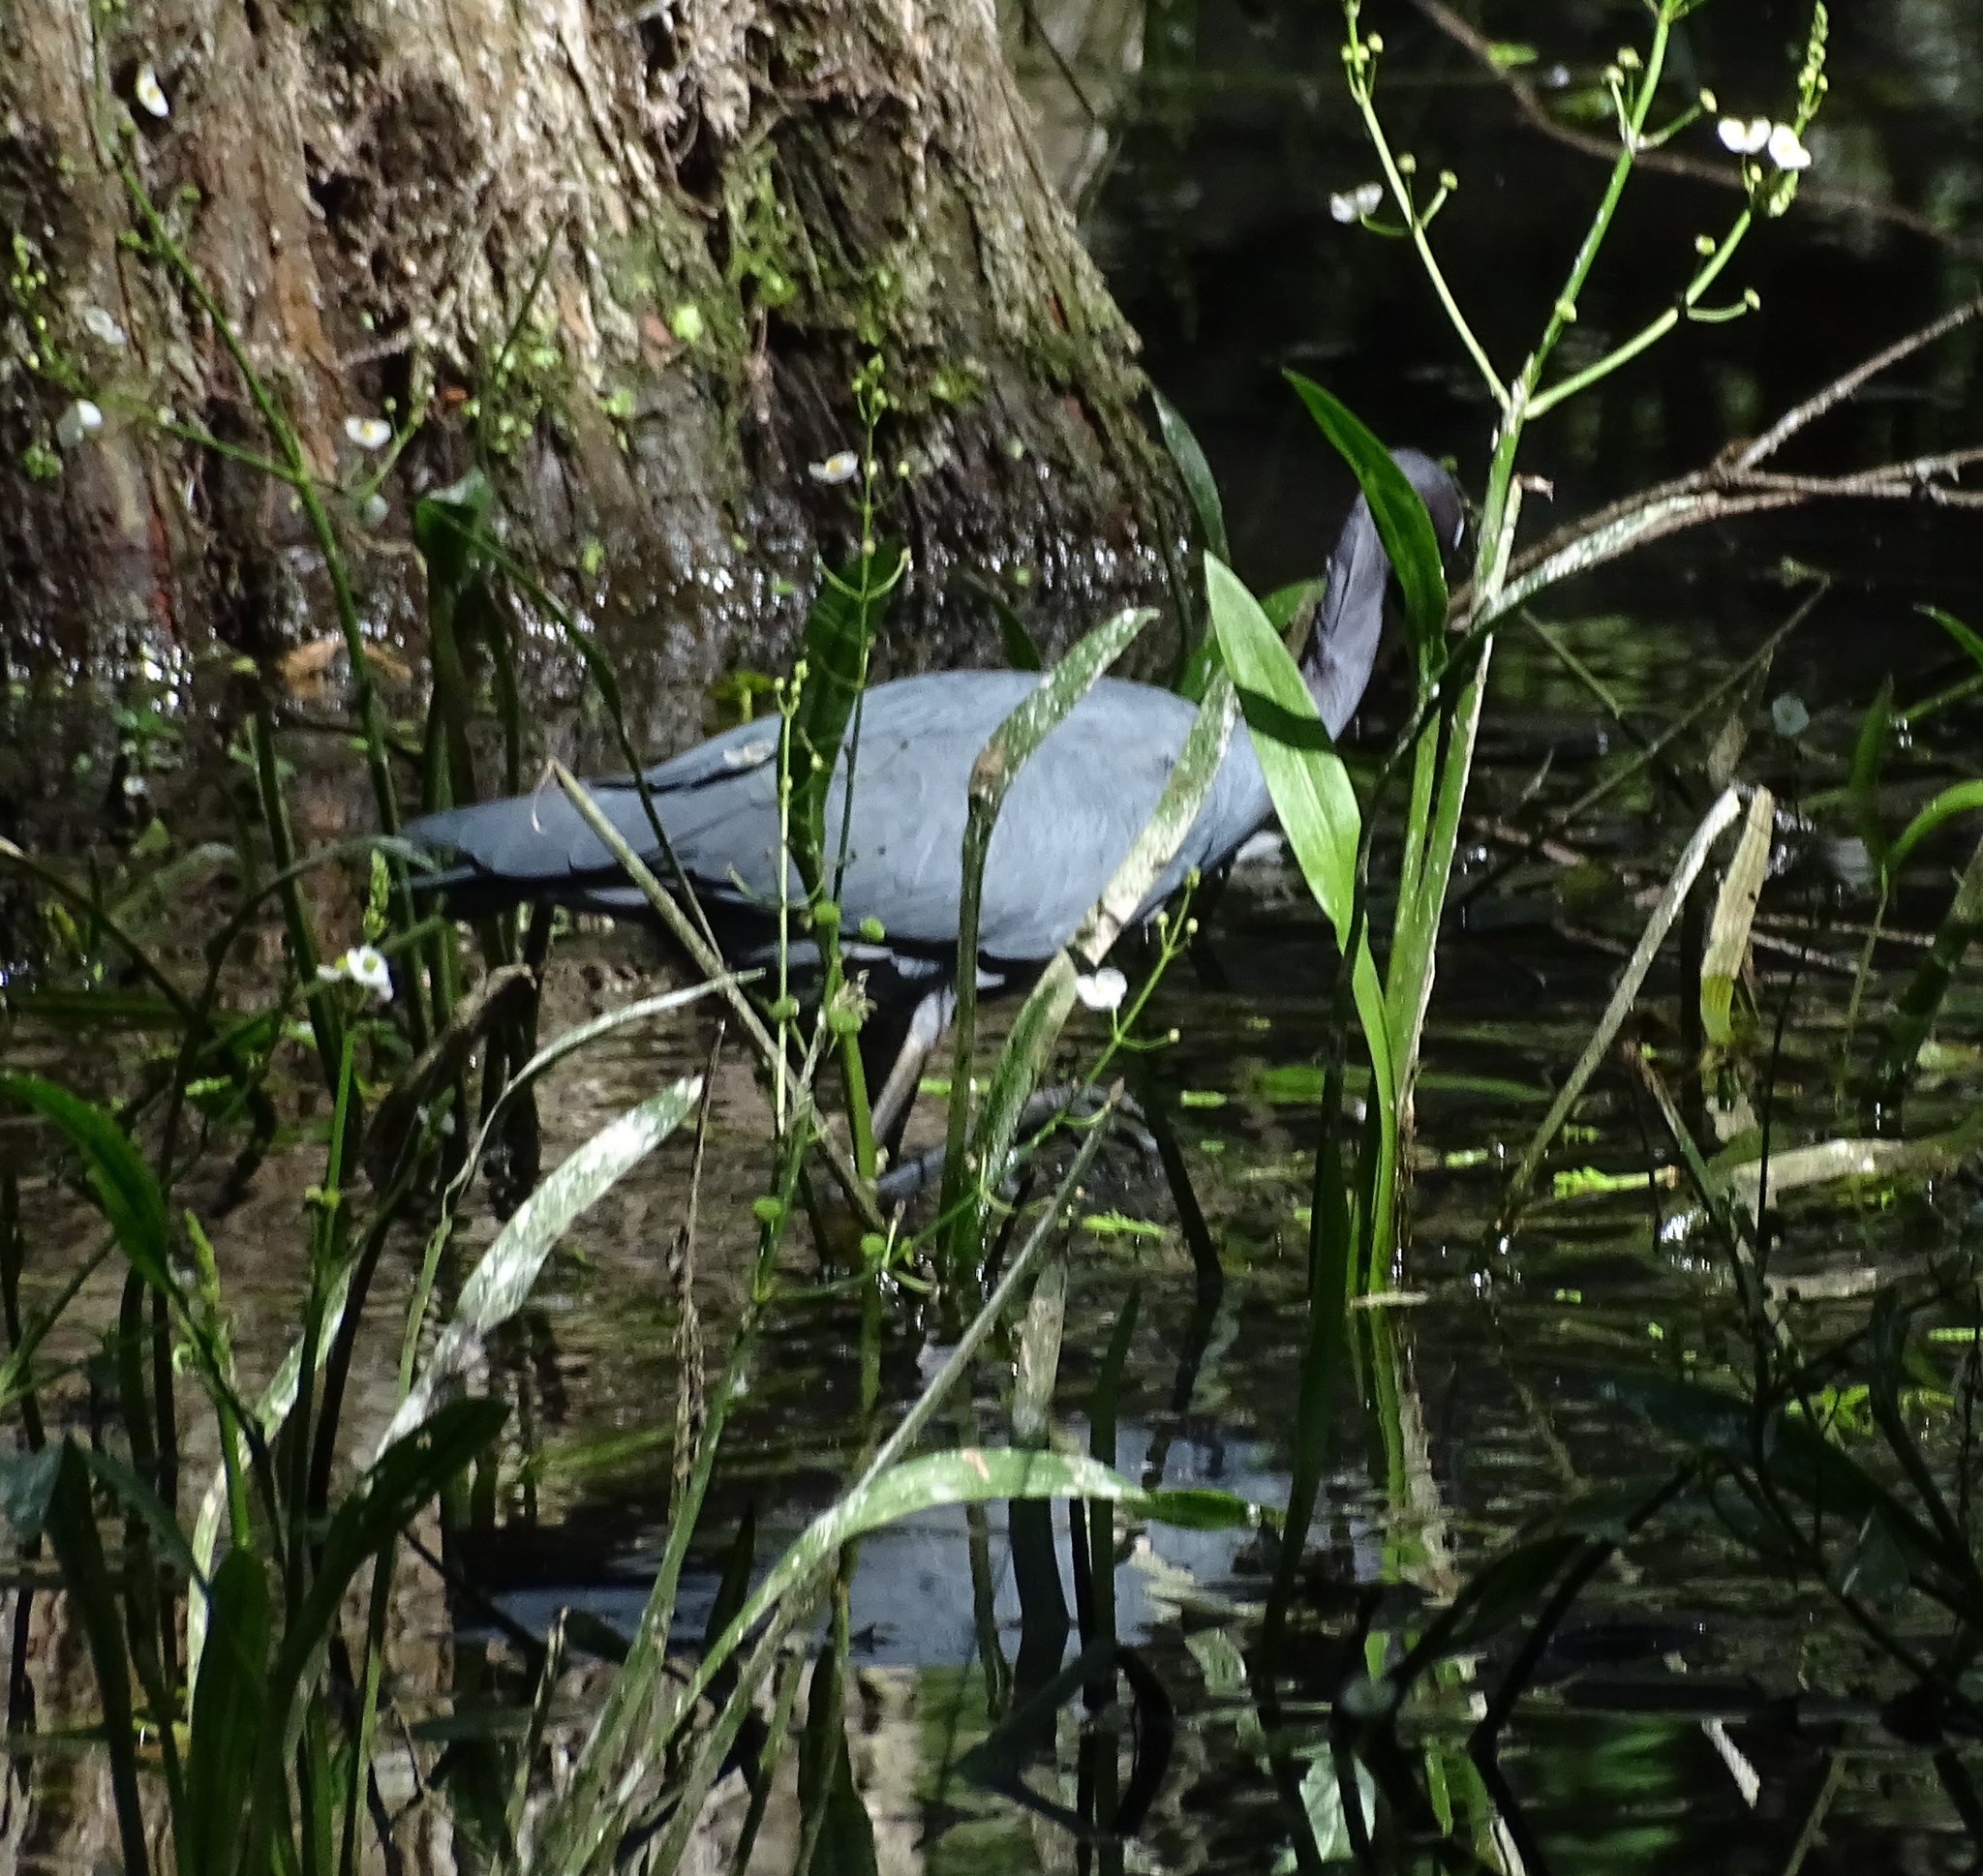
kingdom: Animalia
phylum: Chordata
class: Aves
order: Pelecaniformes
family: Ardeidae
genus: Egretta
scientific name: Egretta caerulea
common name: Little blue heron
